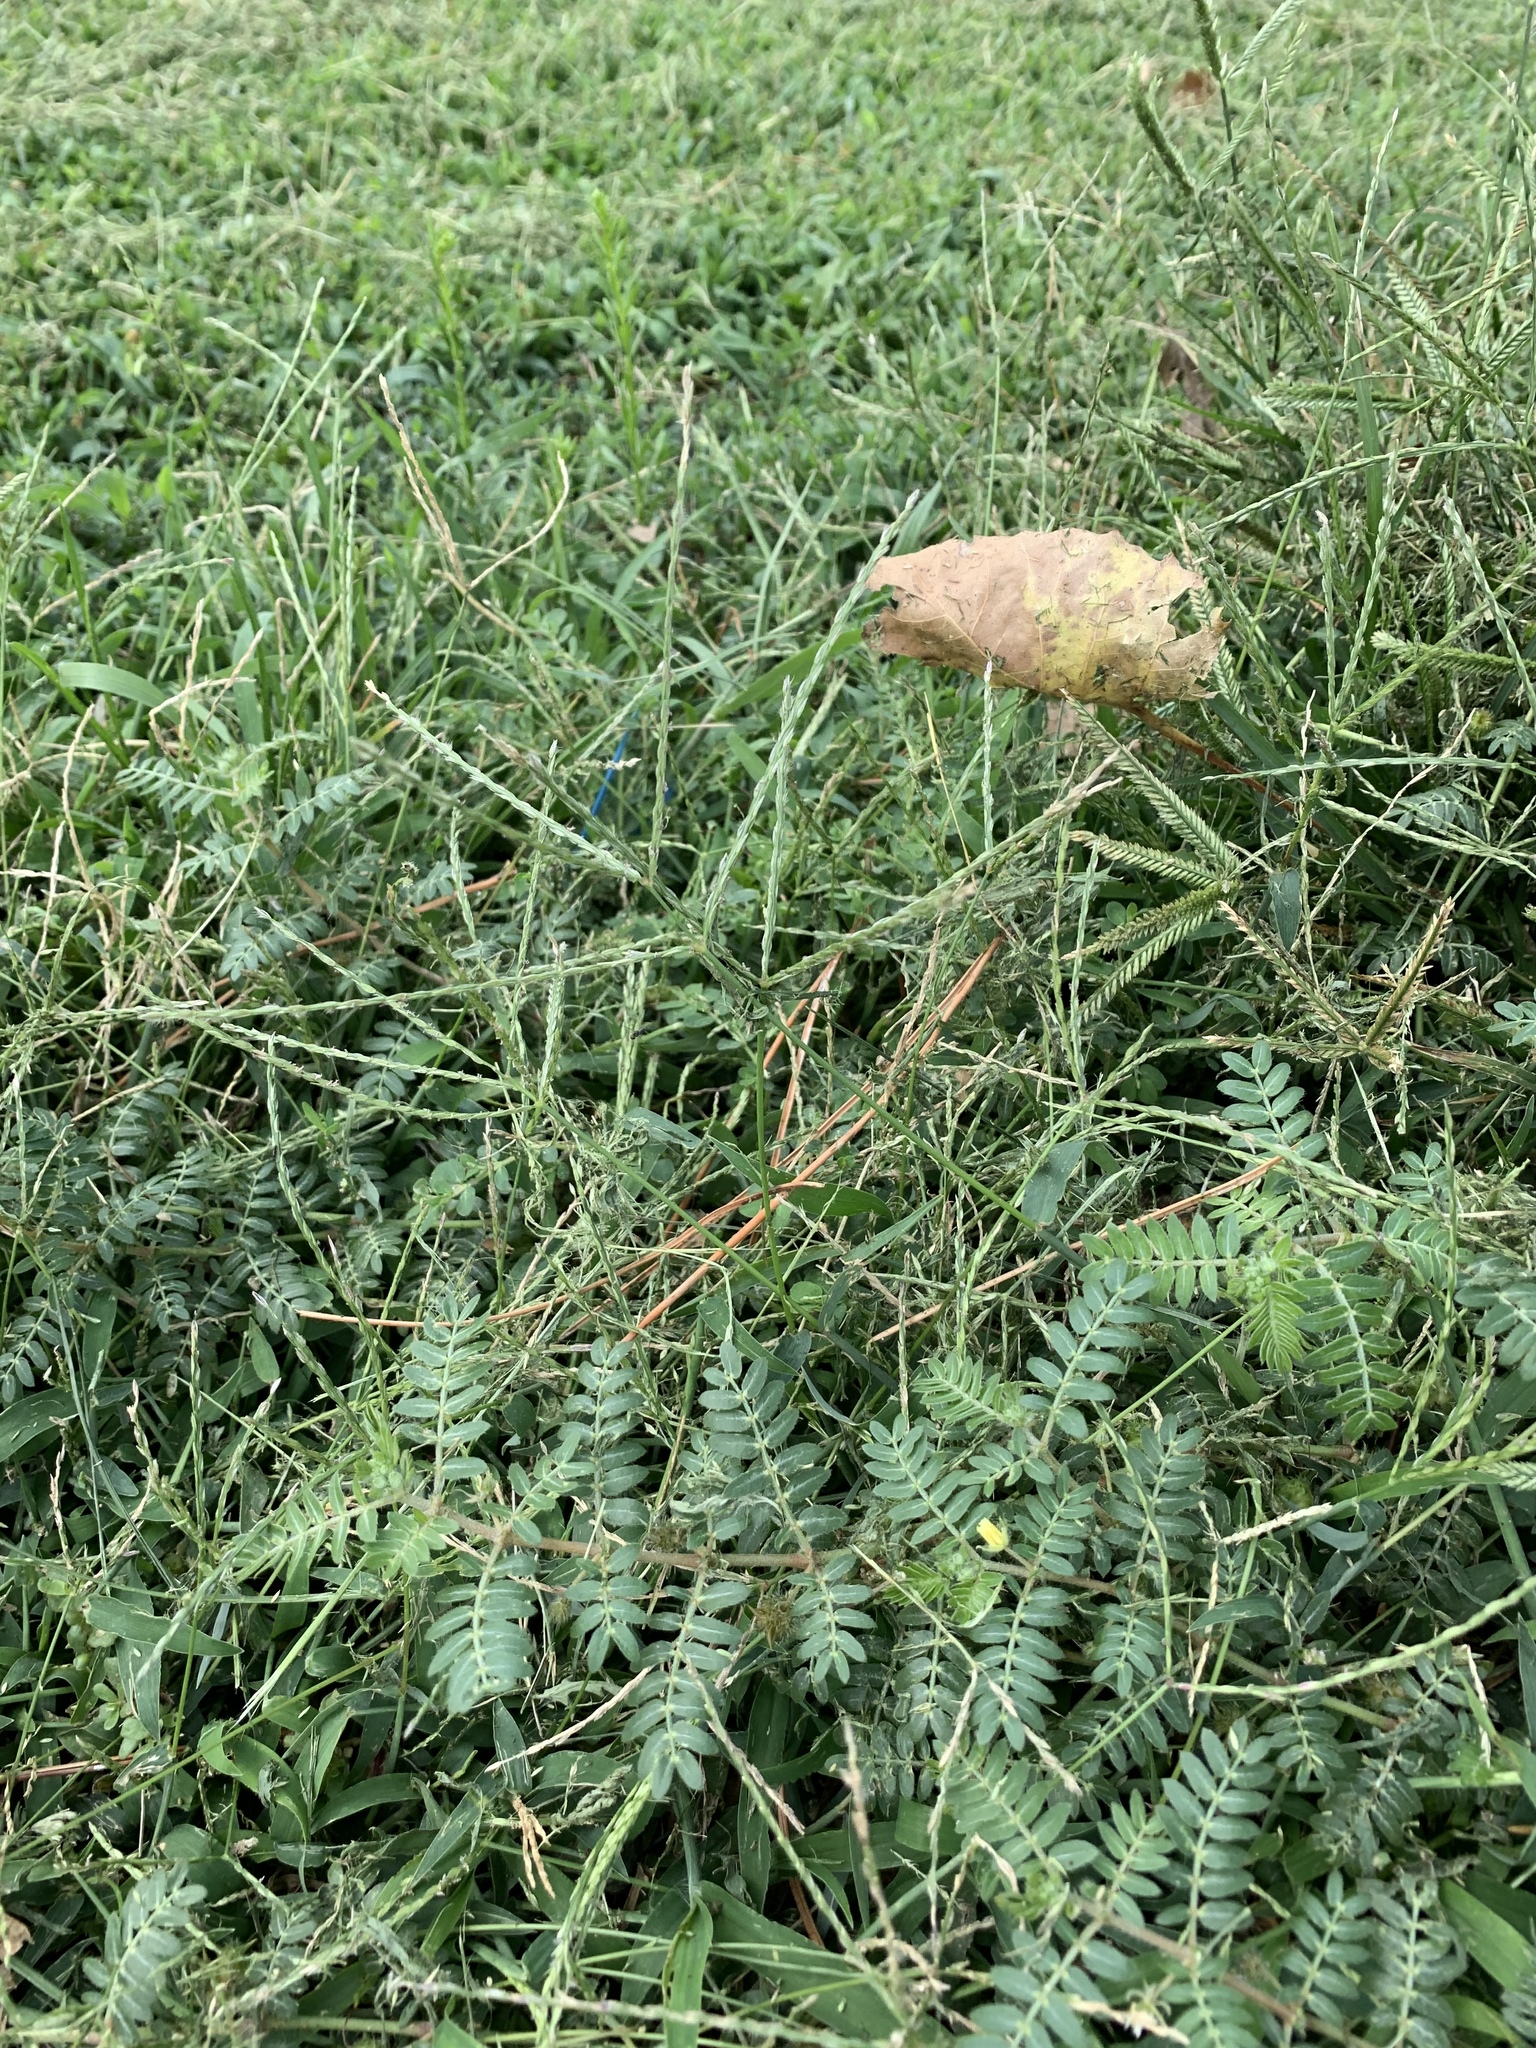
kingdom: Plantae
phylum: Tracheophyta
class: Liliopsida
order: Poales
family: Poaceae
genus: Eleusine
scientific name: Eleusine indica
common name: Yard-grass
